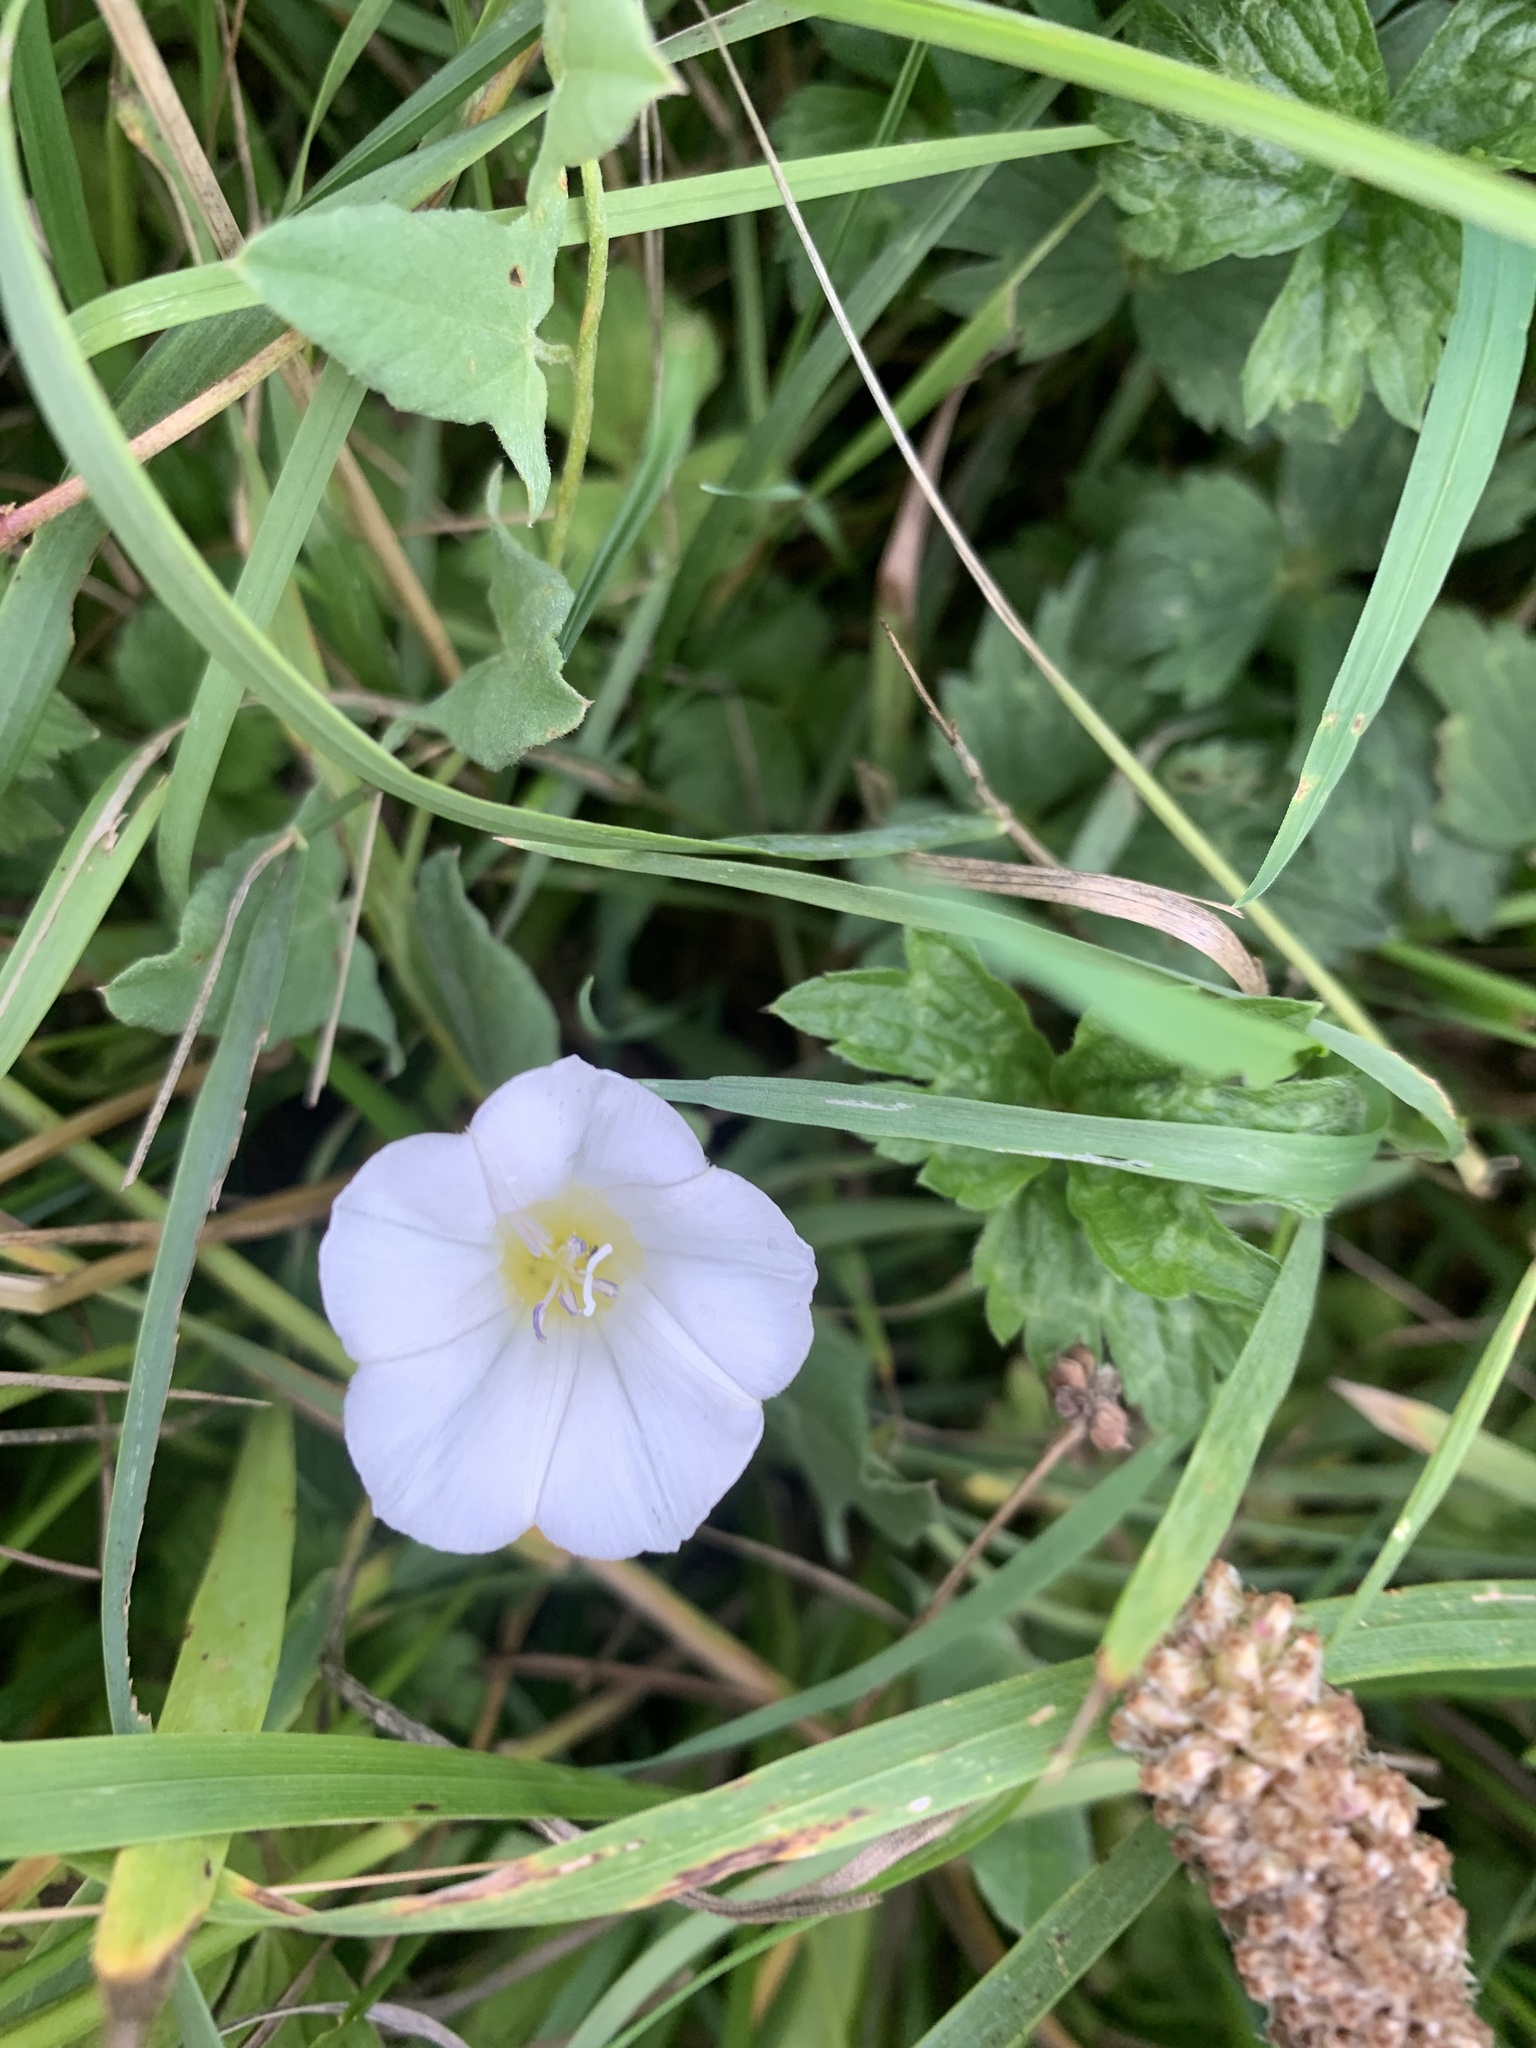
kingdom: Plantae
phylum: Tracheophyta
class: Magnoliopsida
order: Solanales
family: Convolvulaceae
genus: Convolvulus
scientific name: Convolvulus arvensis
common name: Field bindweed
